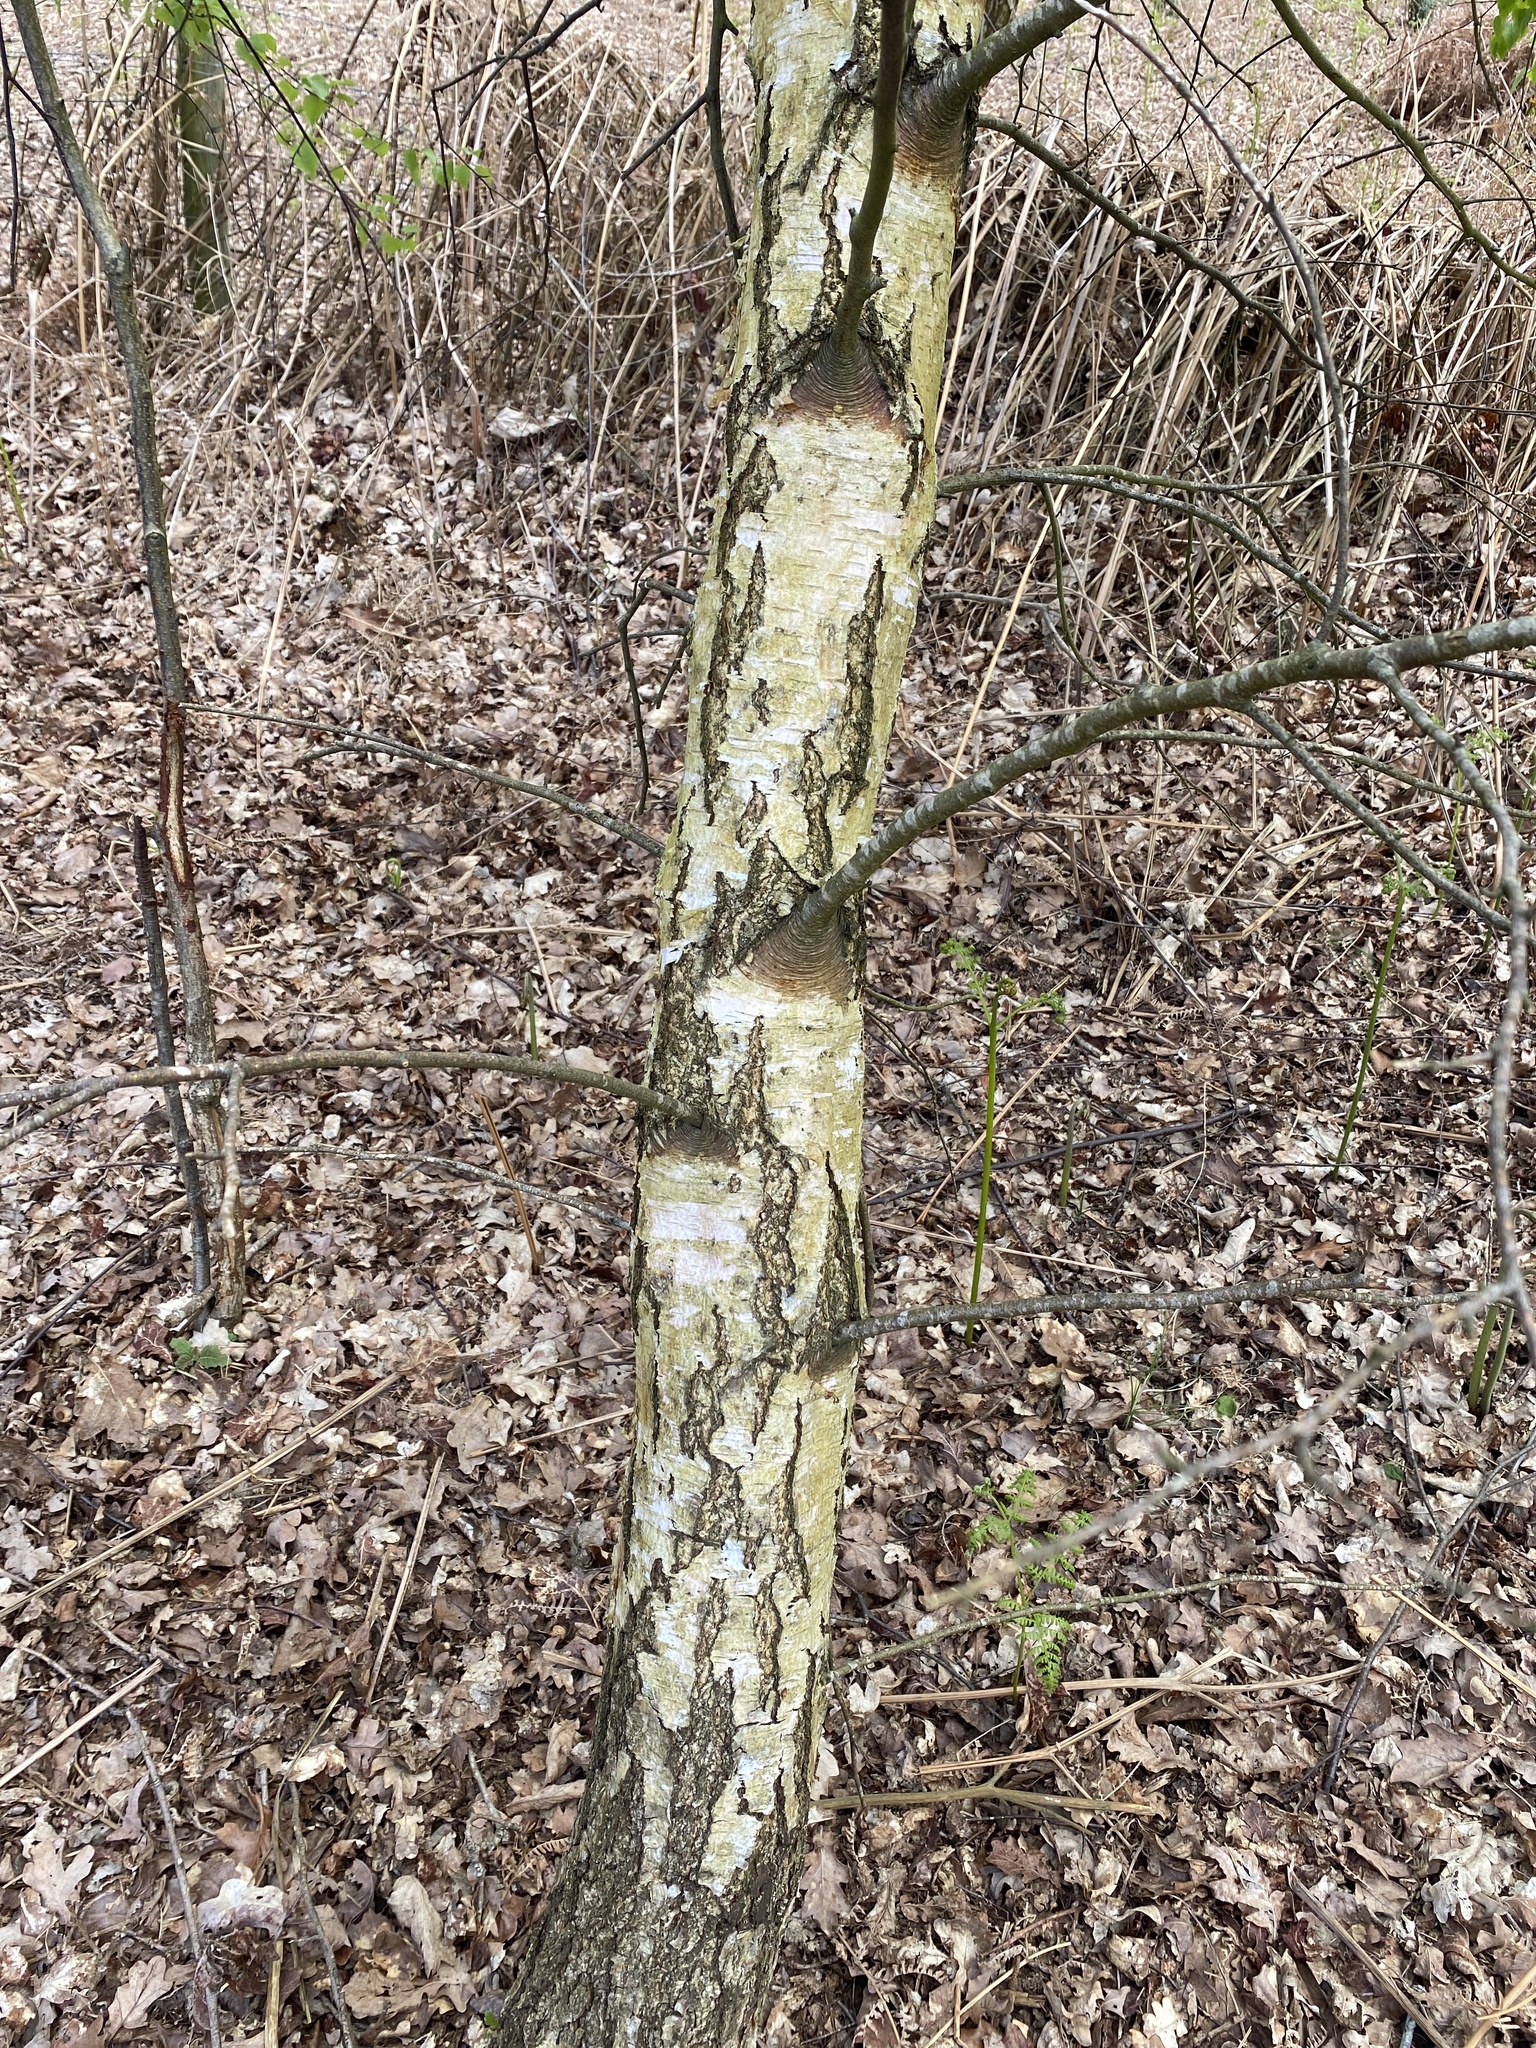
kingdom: Plantae
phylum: Tracheophyta
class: Magnoliopsida
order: Fagales
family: Betulaceae
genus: Betula
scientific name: Betula pendula
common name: Silver birch
